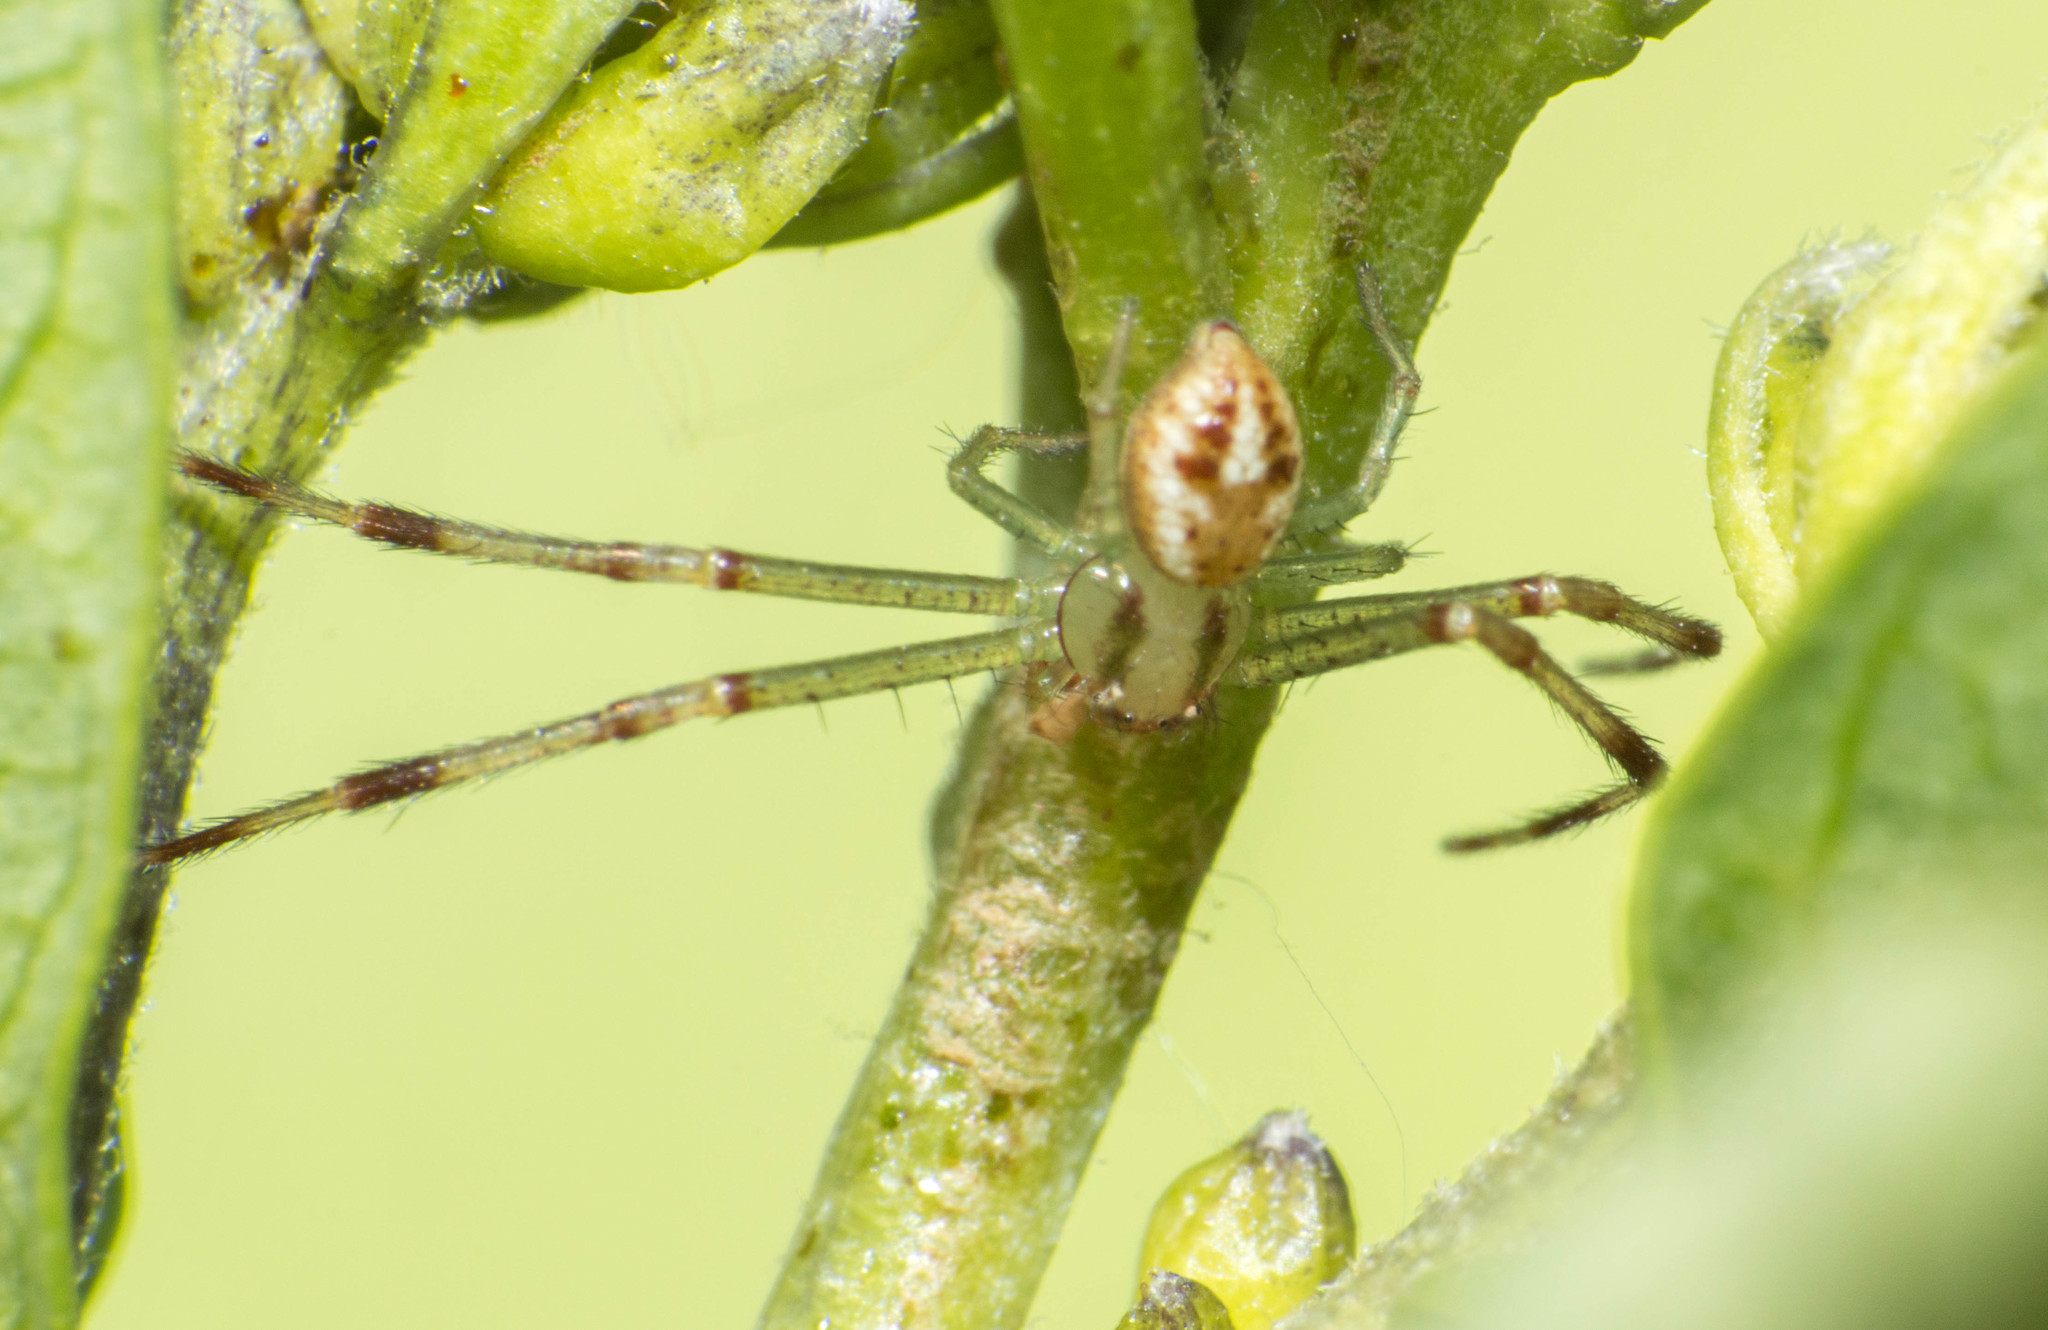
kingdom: Animalia
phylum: Arthropoda
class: Arachnida
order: Araneae
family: Thomisidae
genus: Misumenops
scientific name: Misumenops
